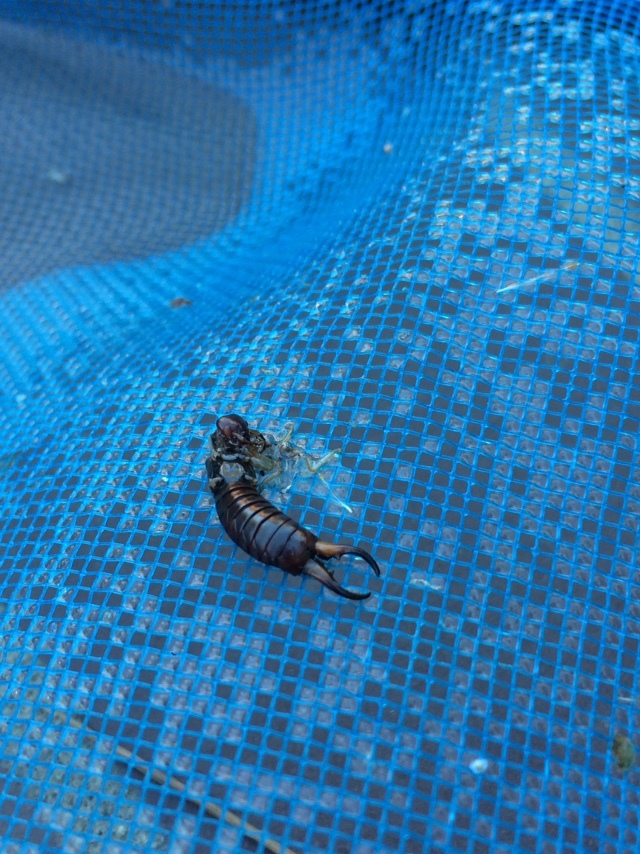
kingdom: Animalia
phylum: Arthropoda
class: Insecta
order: Dermaptera
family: Forficulidae
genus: Forficula
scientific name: Forficula
